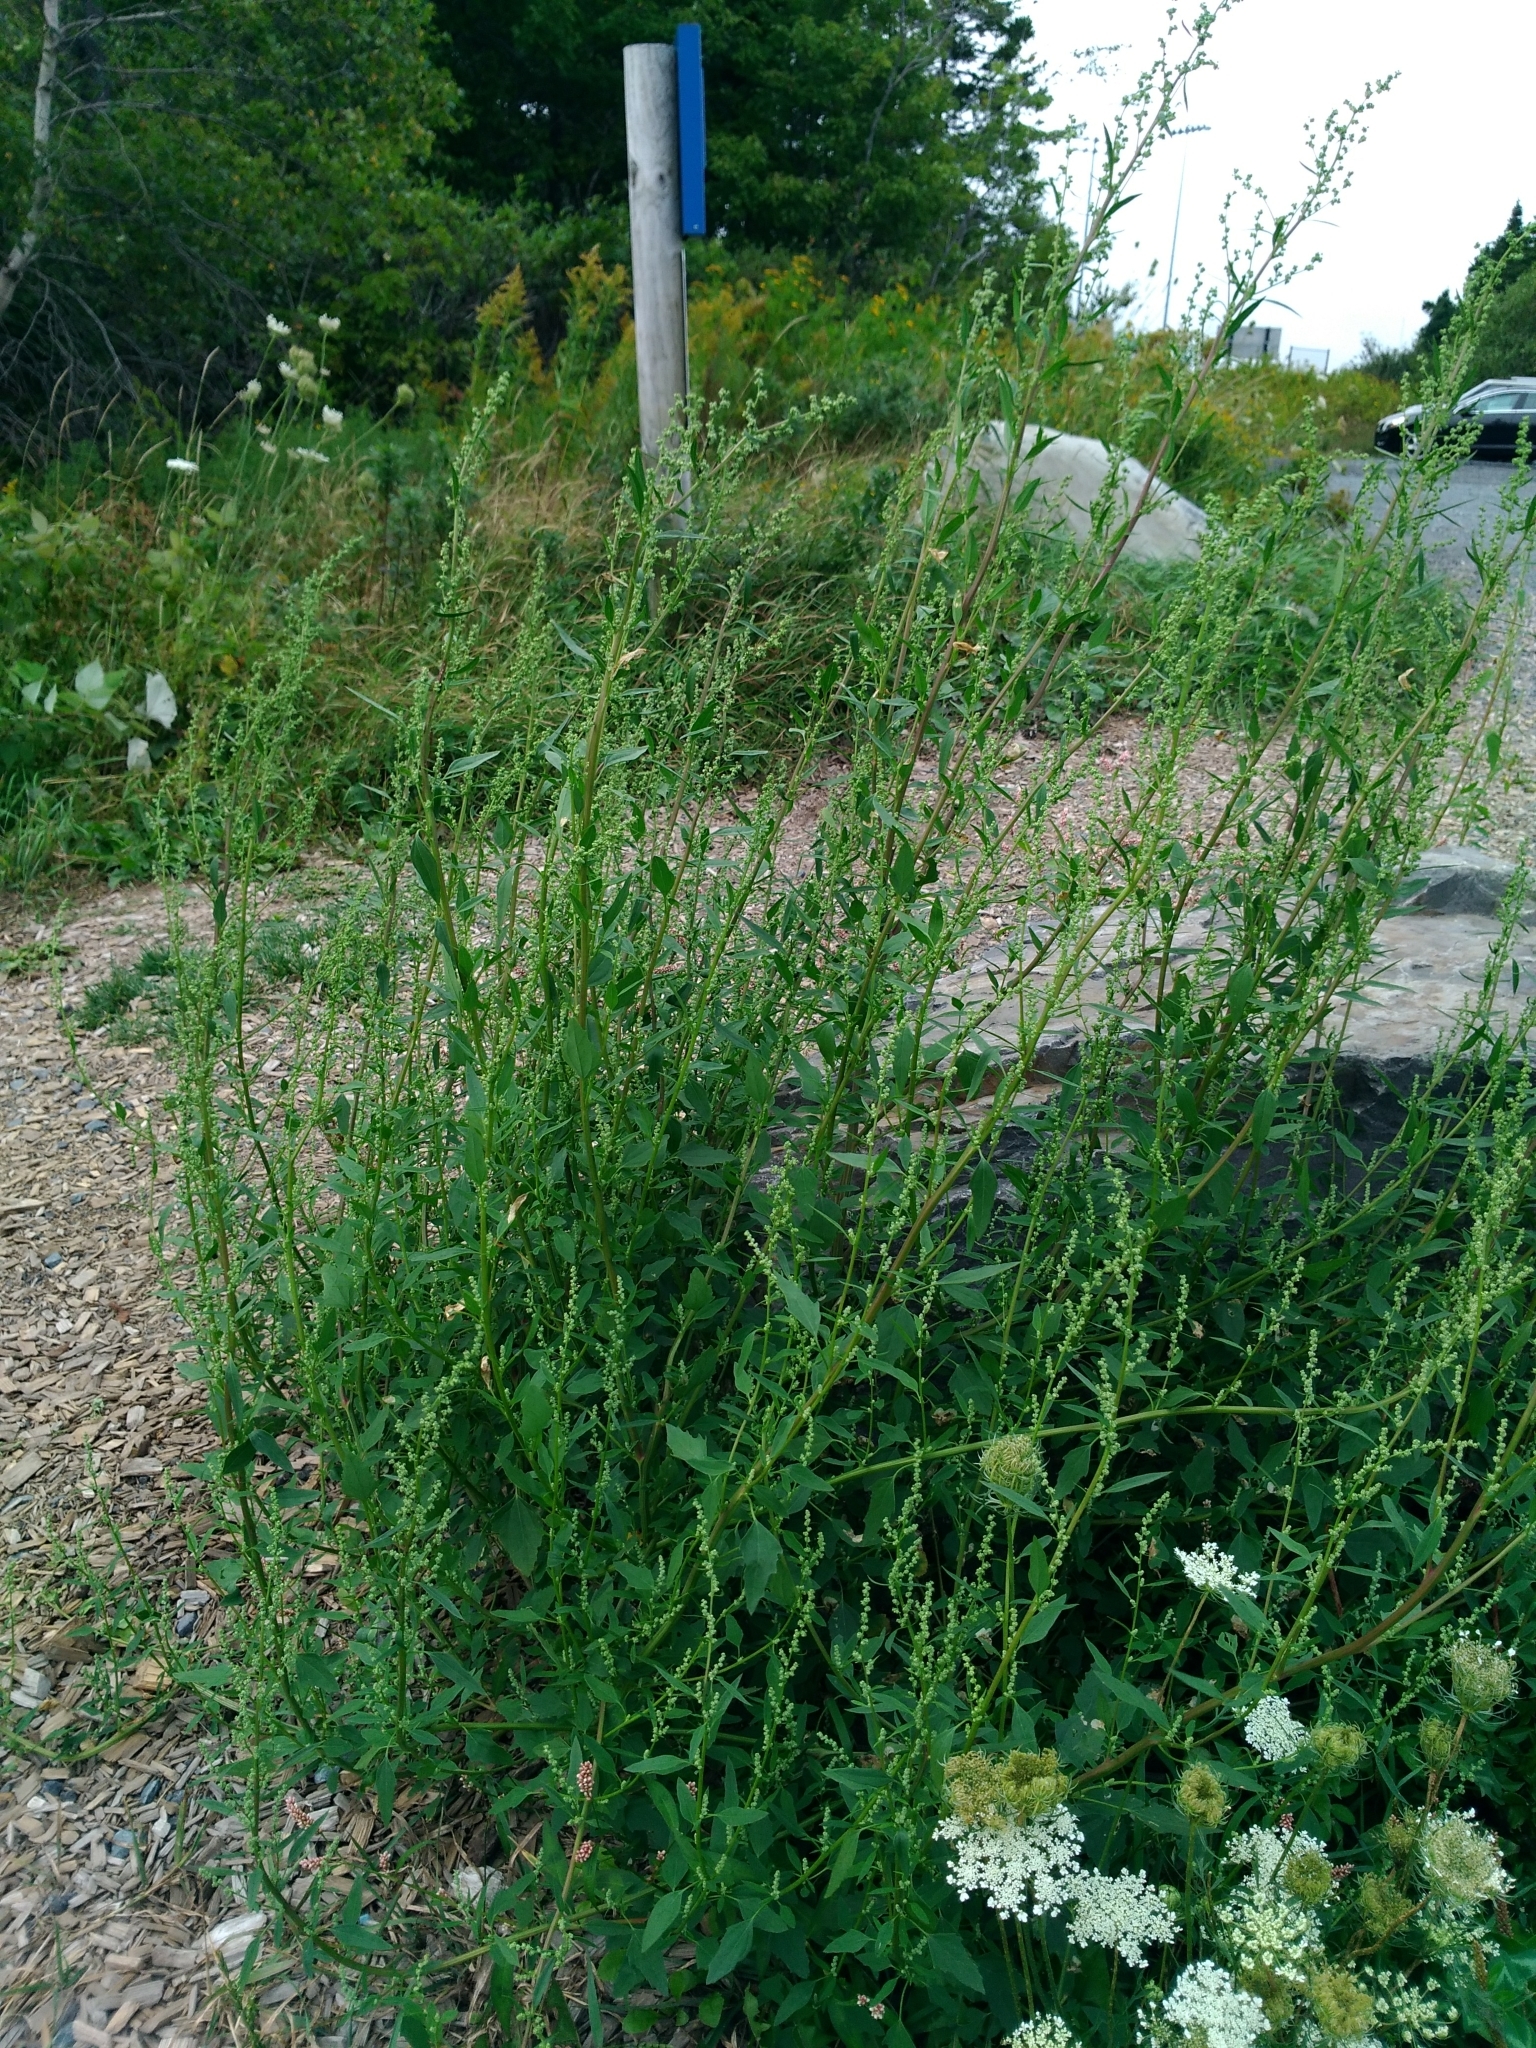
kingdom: Plantae
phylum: Tracheophyta
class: Magnoliopsida
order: Caryophyllales
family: Amaranthaceae
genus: Chenopodium
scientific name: Chenopodium album
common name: Fat-hen
